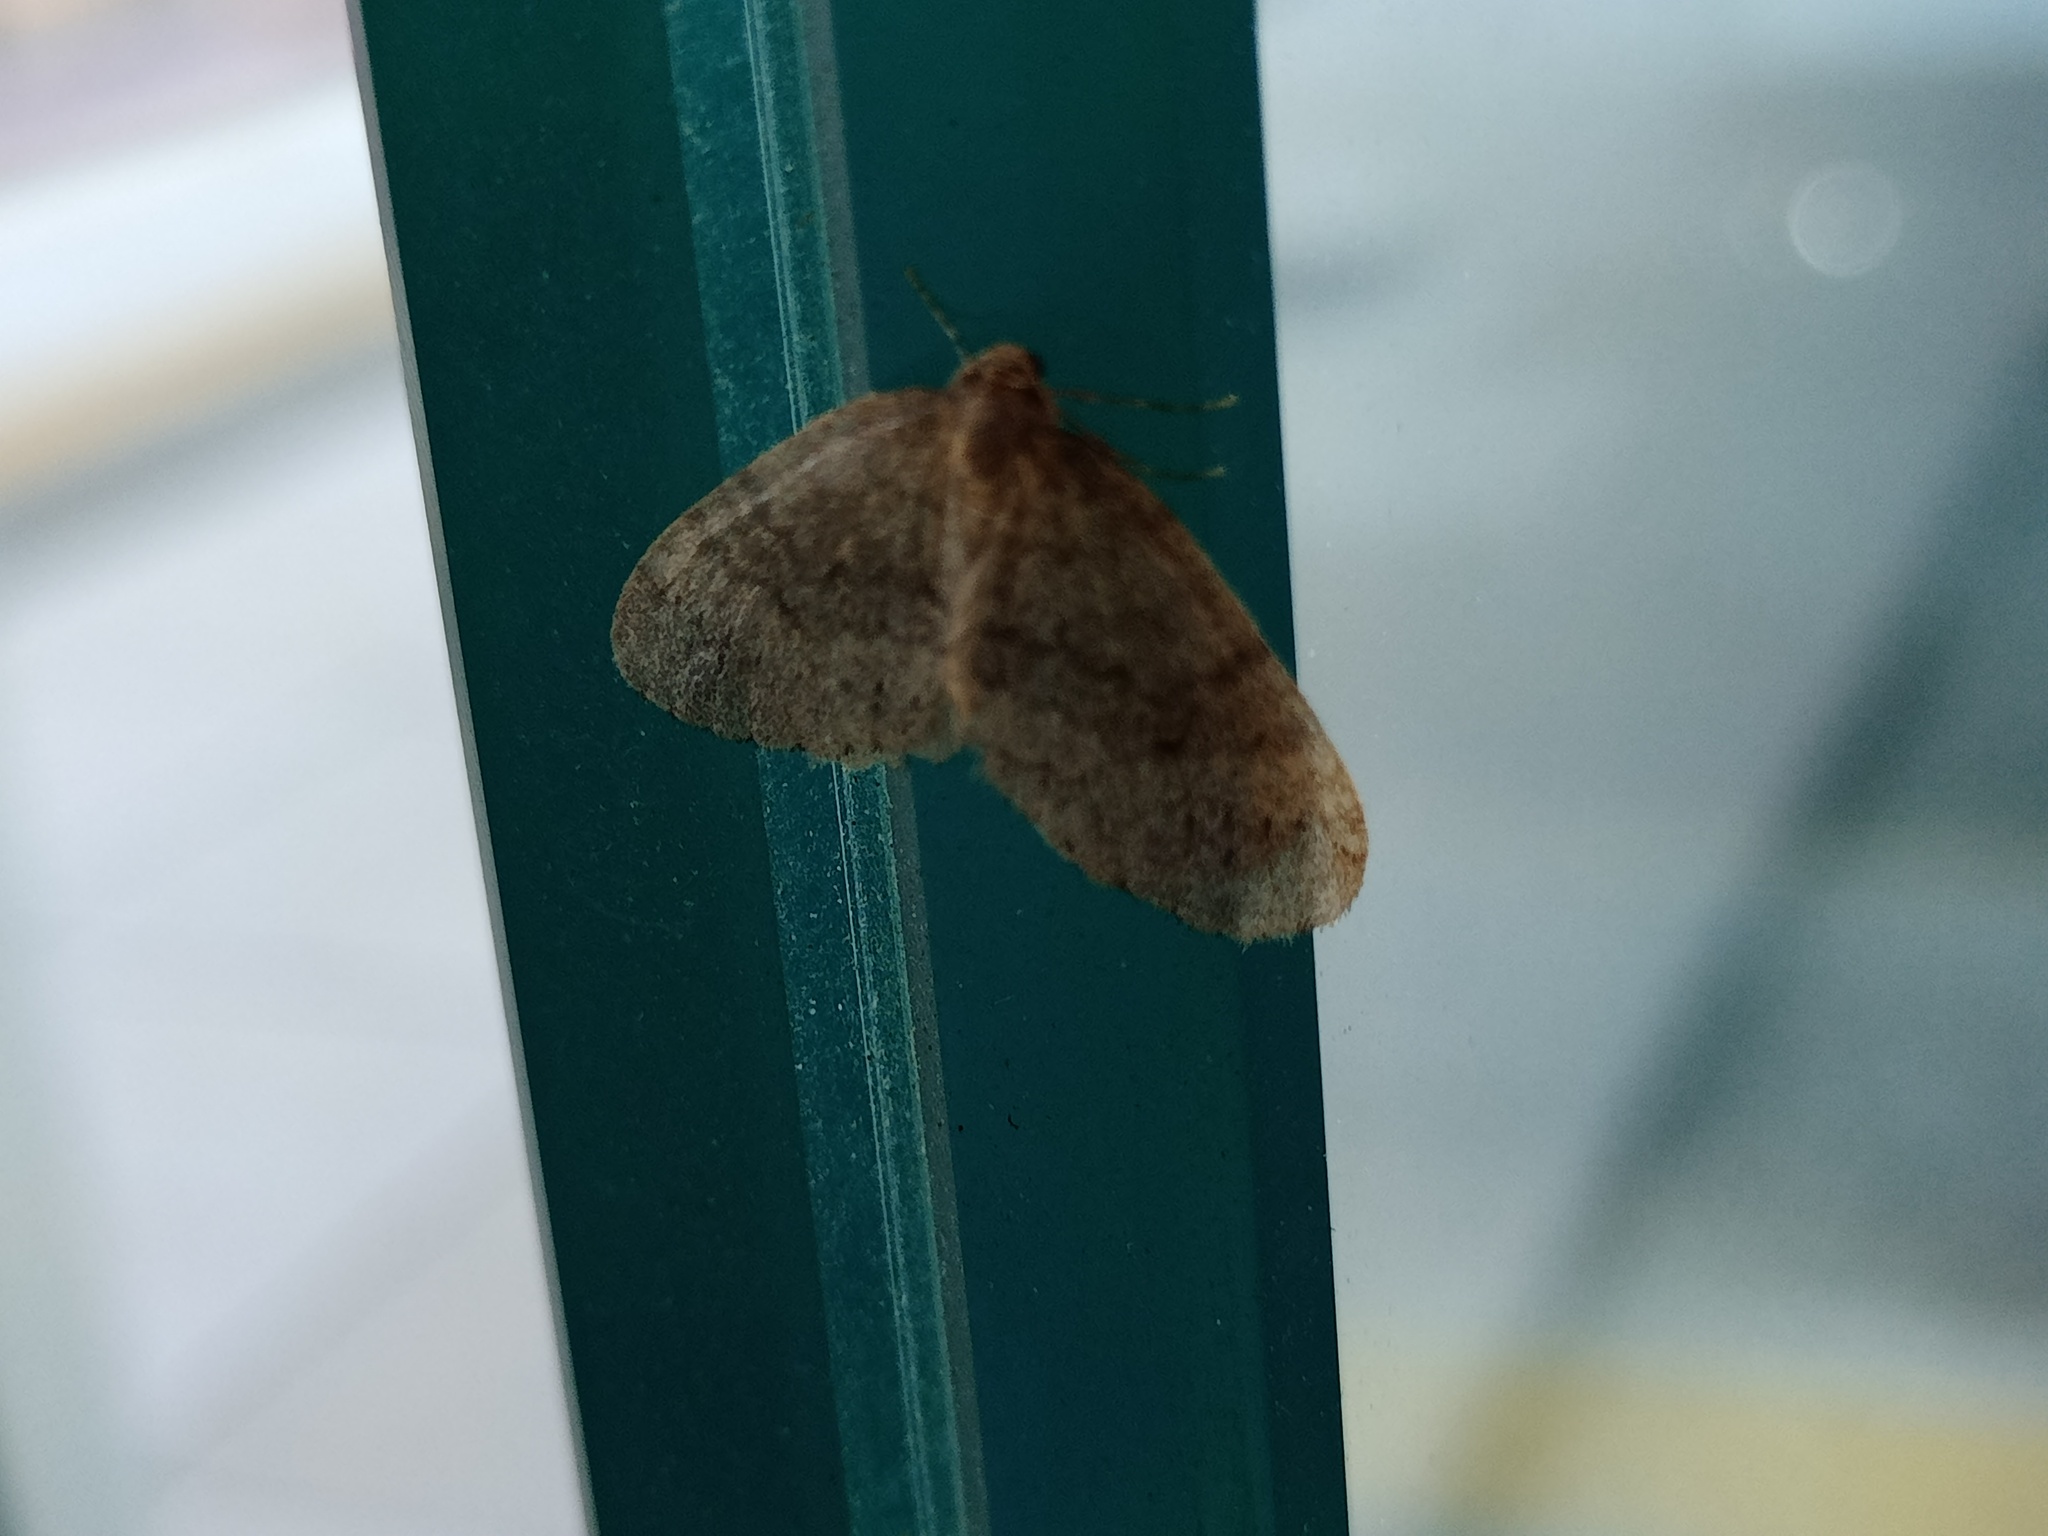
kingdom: Animalia
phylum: Arthropoda
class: Insecta
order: Lepidoptera
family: Geometridae
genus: Operophtera
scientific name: Operophtera brumata
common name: Winter moth
